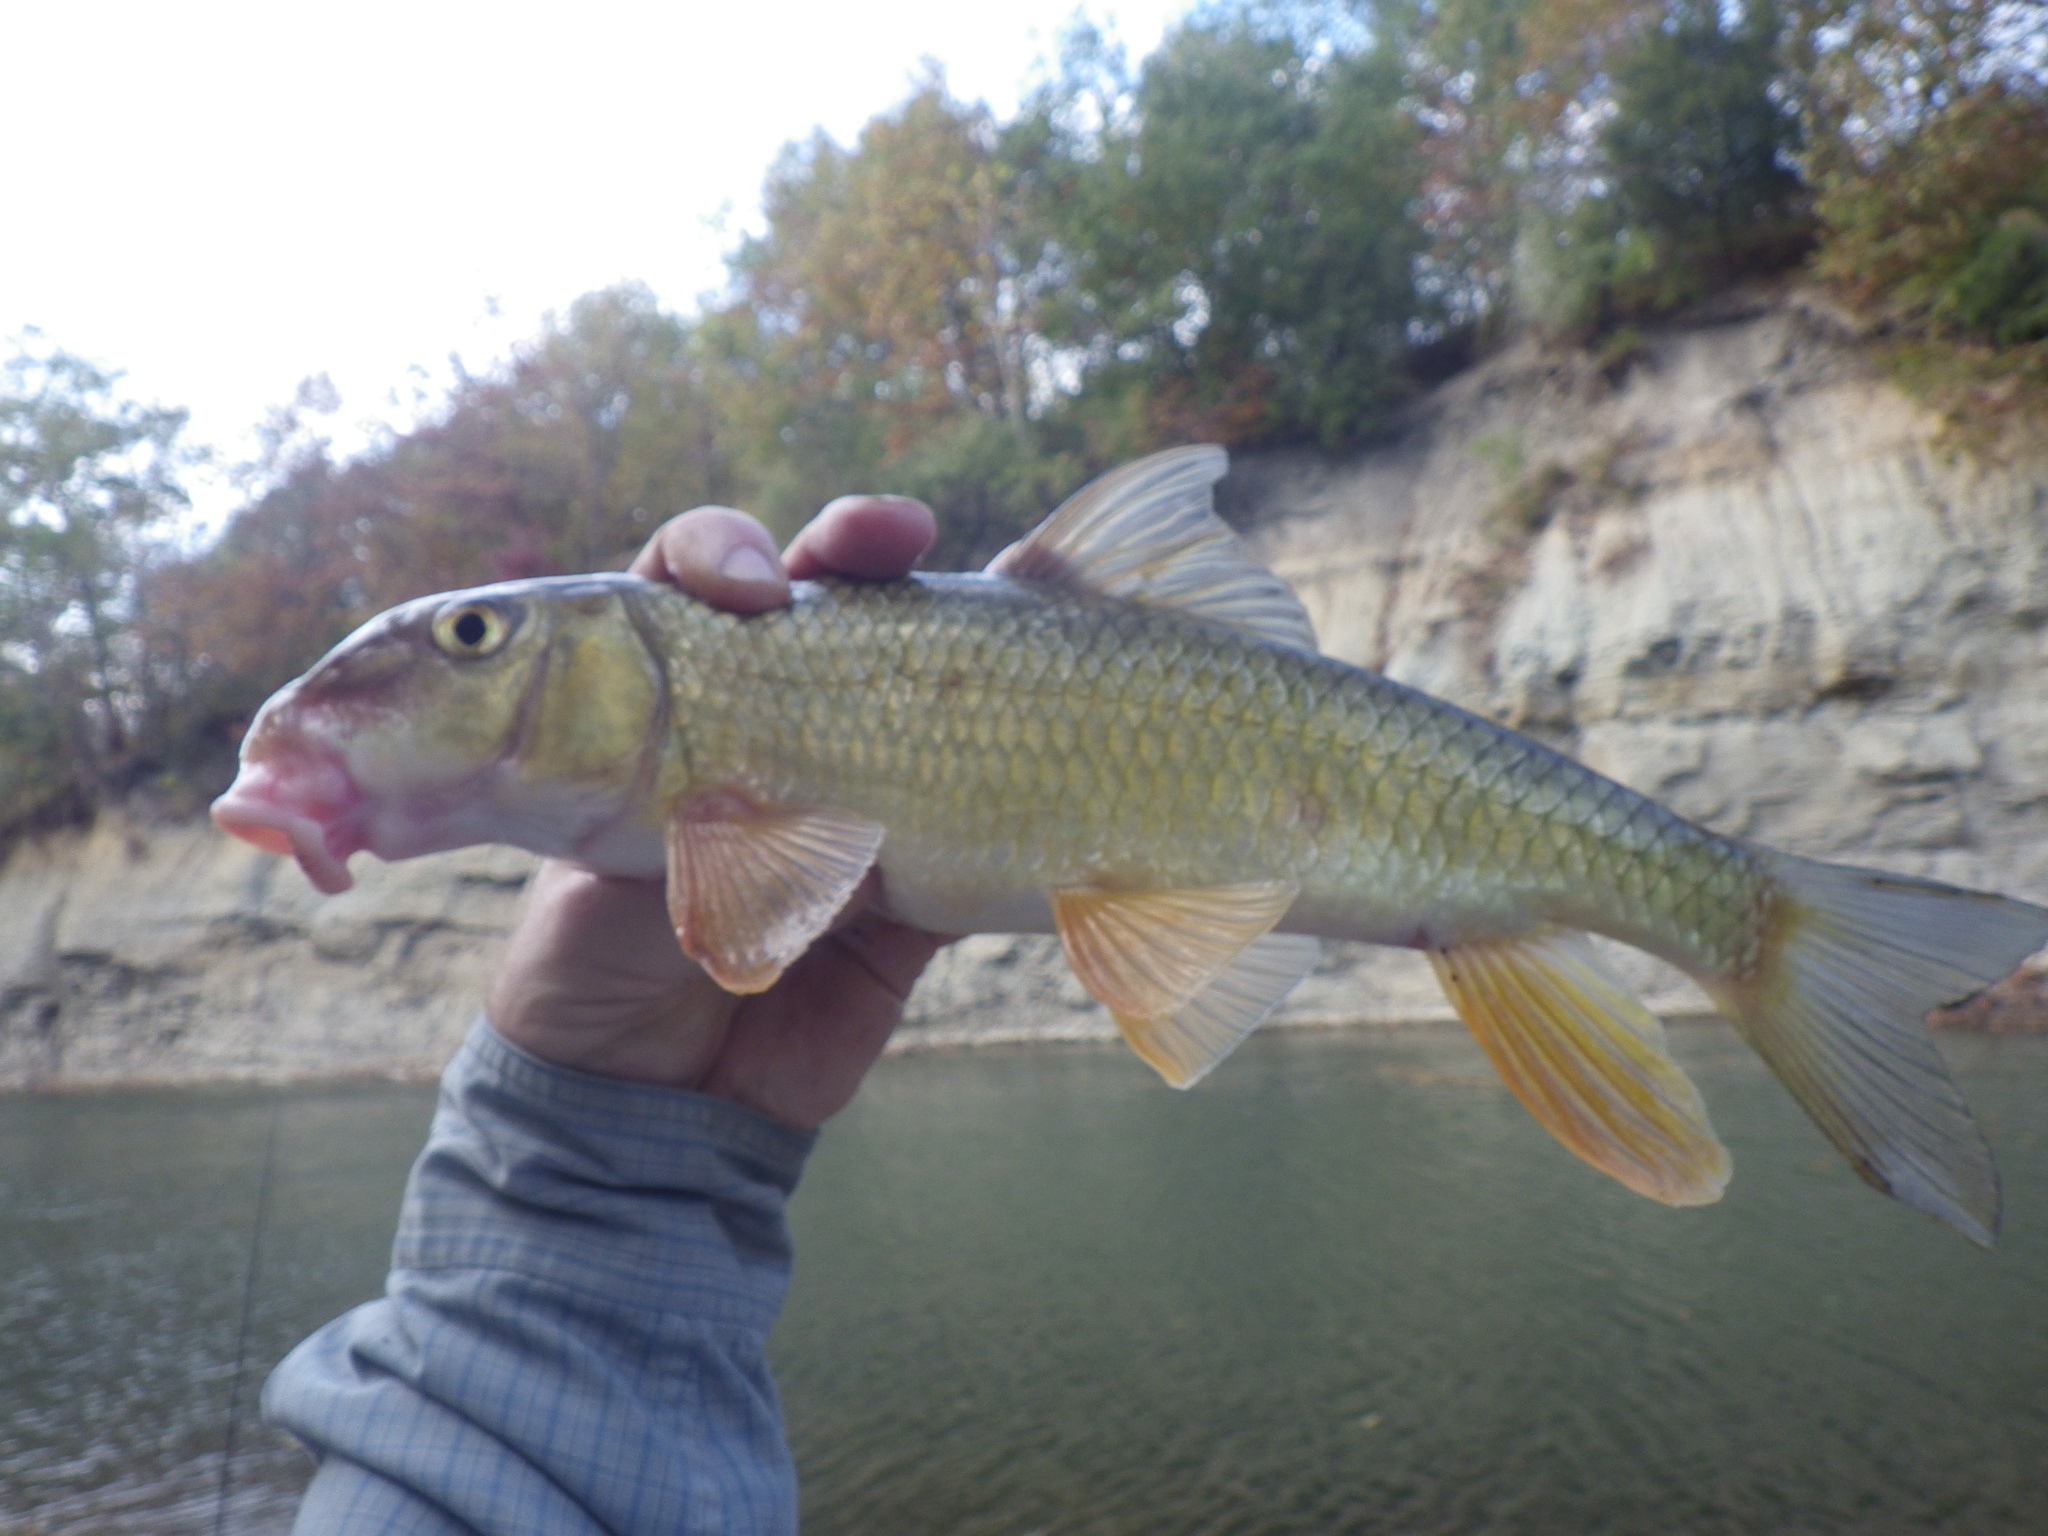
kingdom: Animalia
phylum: Chordata
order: Cypriniformes
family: Catostomidae
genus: Moxostoma
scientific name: Moxostoma erythrurum
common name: Golden redhorse
